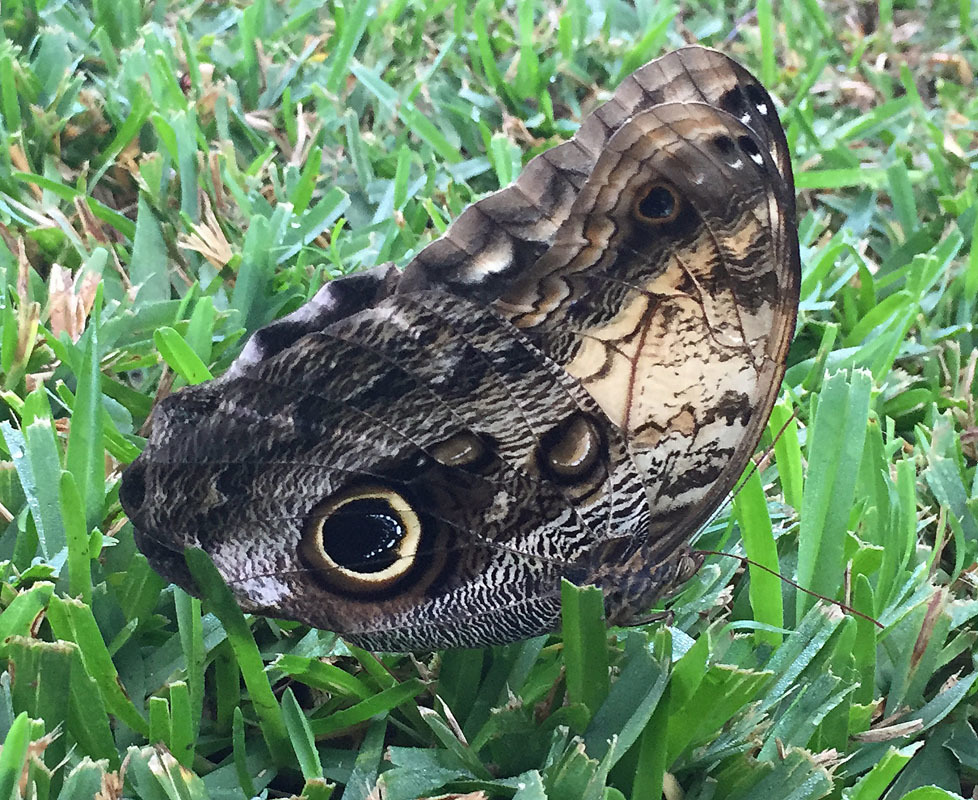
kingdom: Animalia
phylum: Arthropoda
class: Insecta
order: Lepidoptera
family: Nymphalidae
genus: Caligo
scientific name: Caligo telamonius
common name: Pale owl-butterfly
